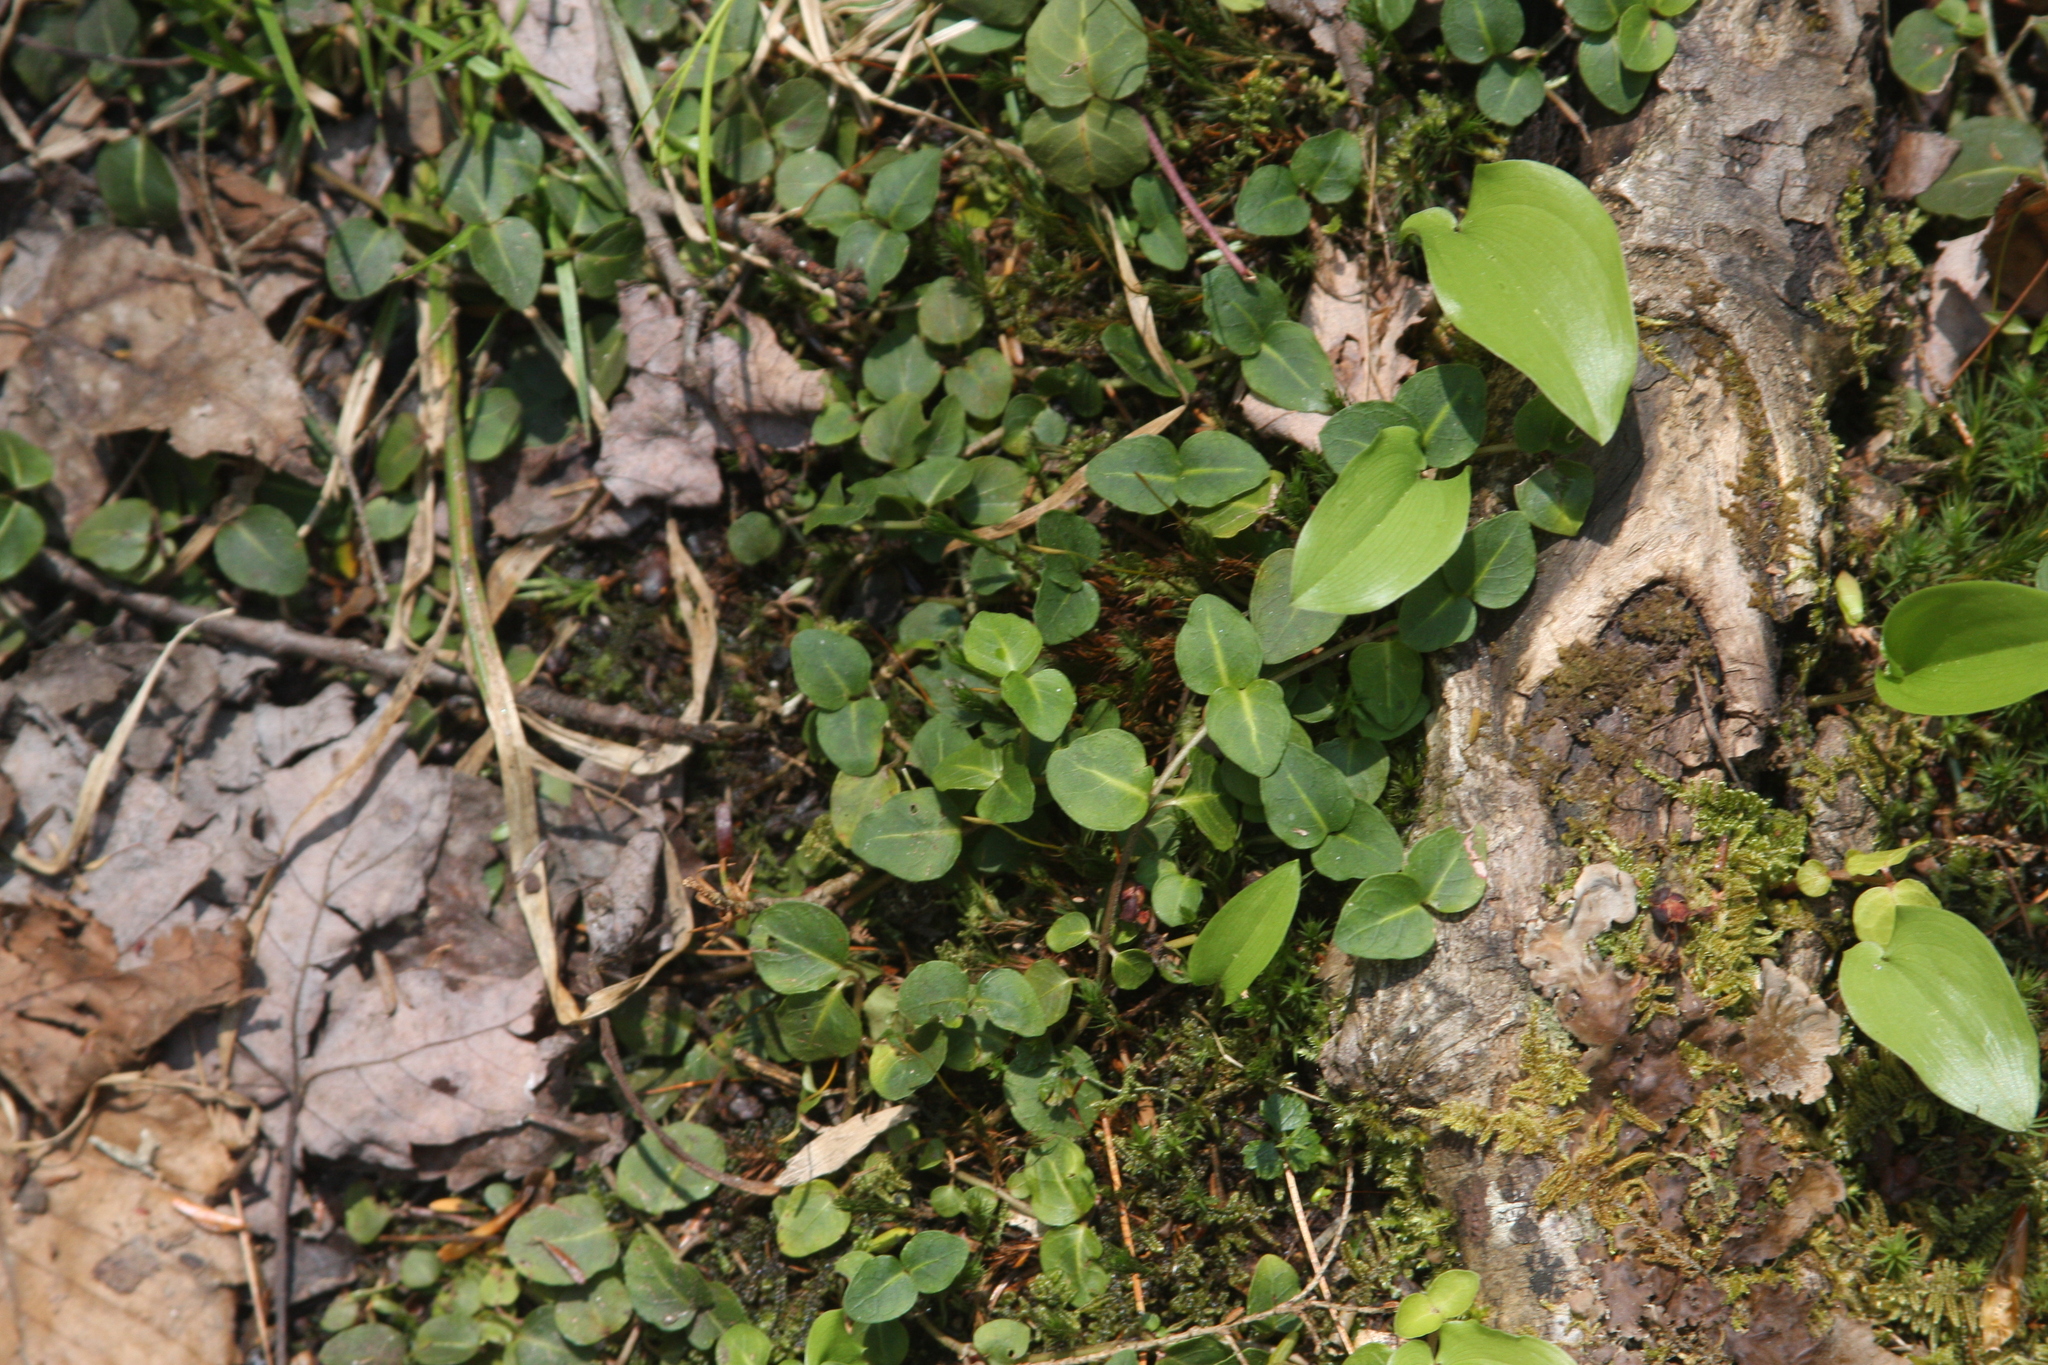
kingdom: Plantae
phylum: Tracheophyta
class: Magnoliopsida
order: Gentianales
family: Rubiaceae
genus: Mitchella
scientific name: Mitchella repens
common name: Partridge-berry
